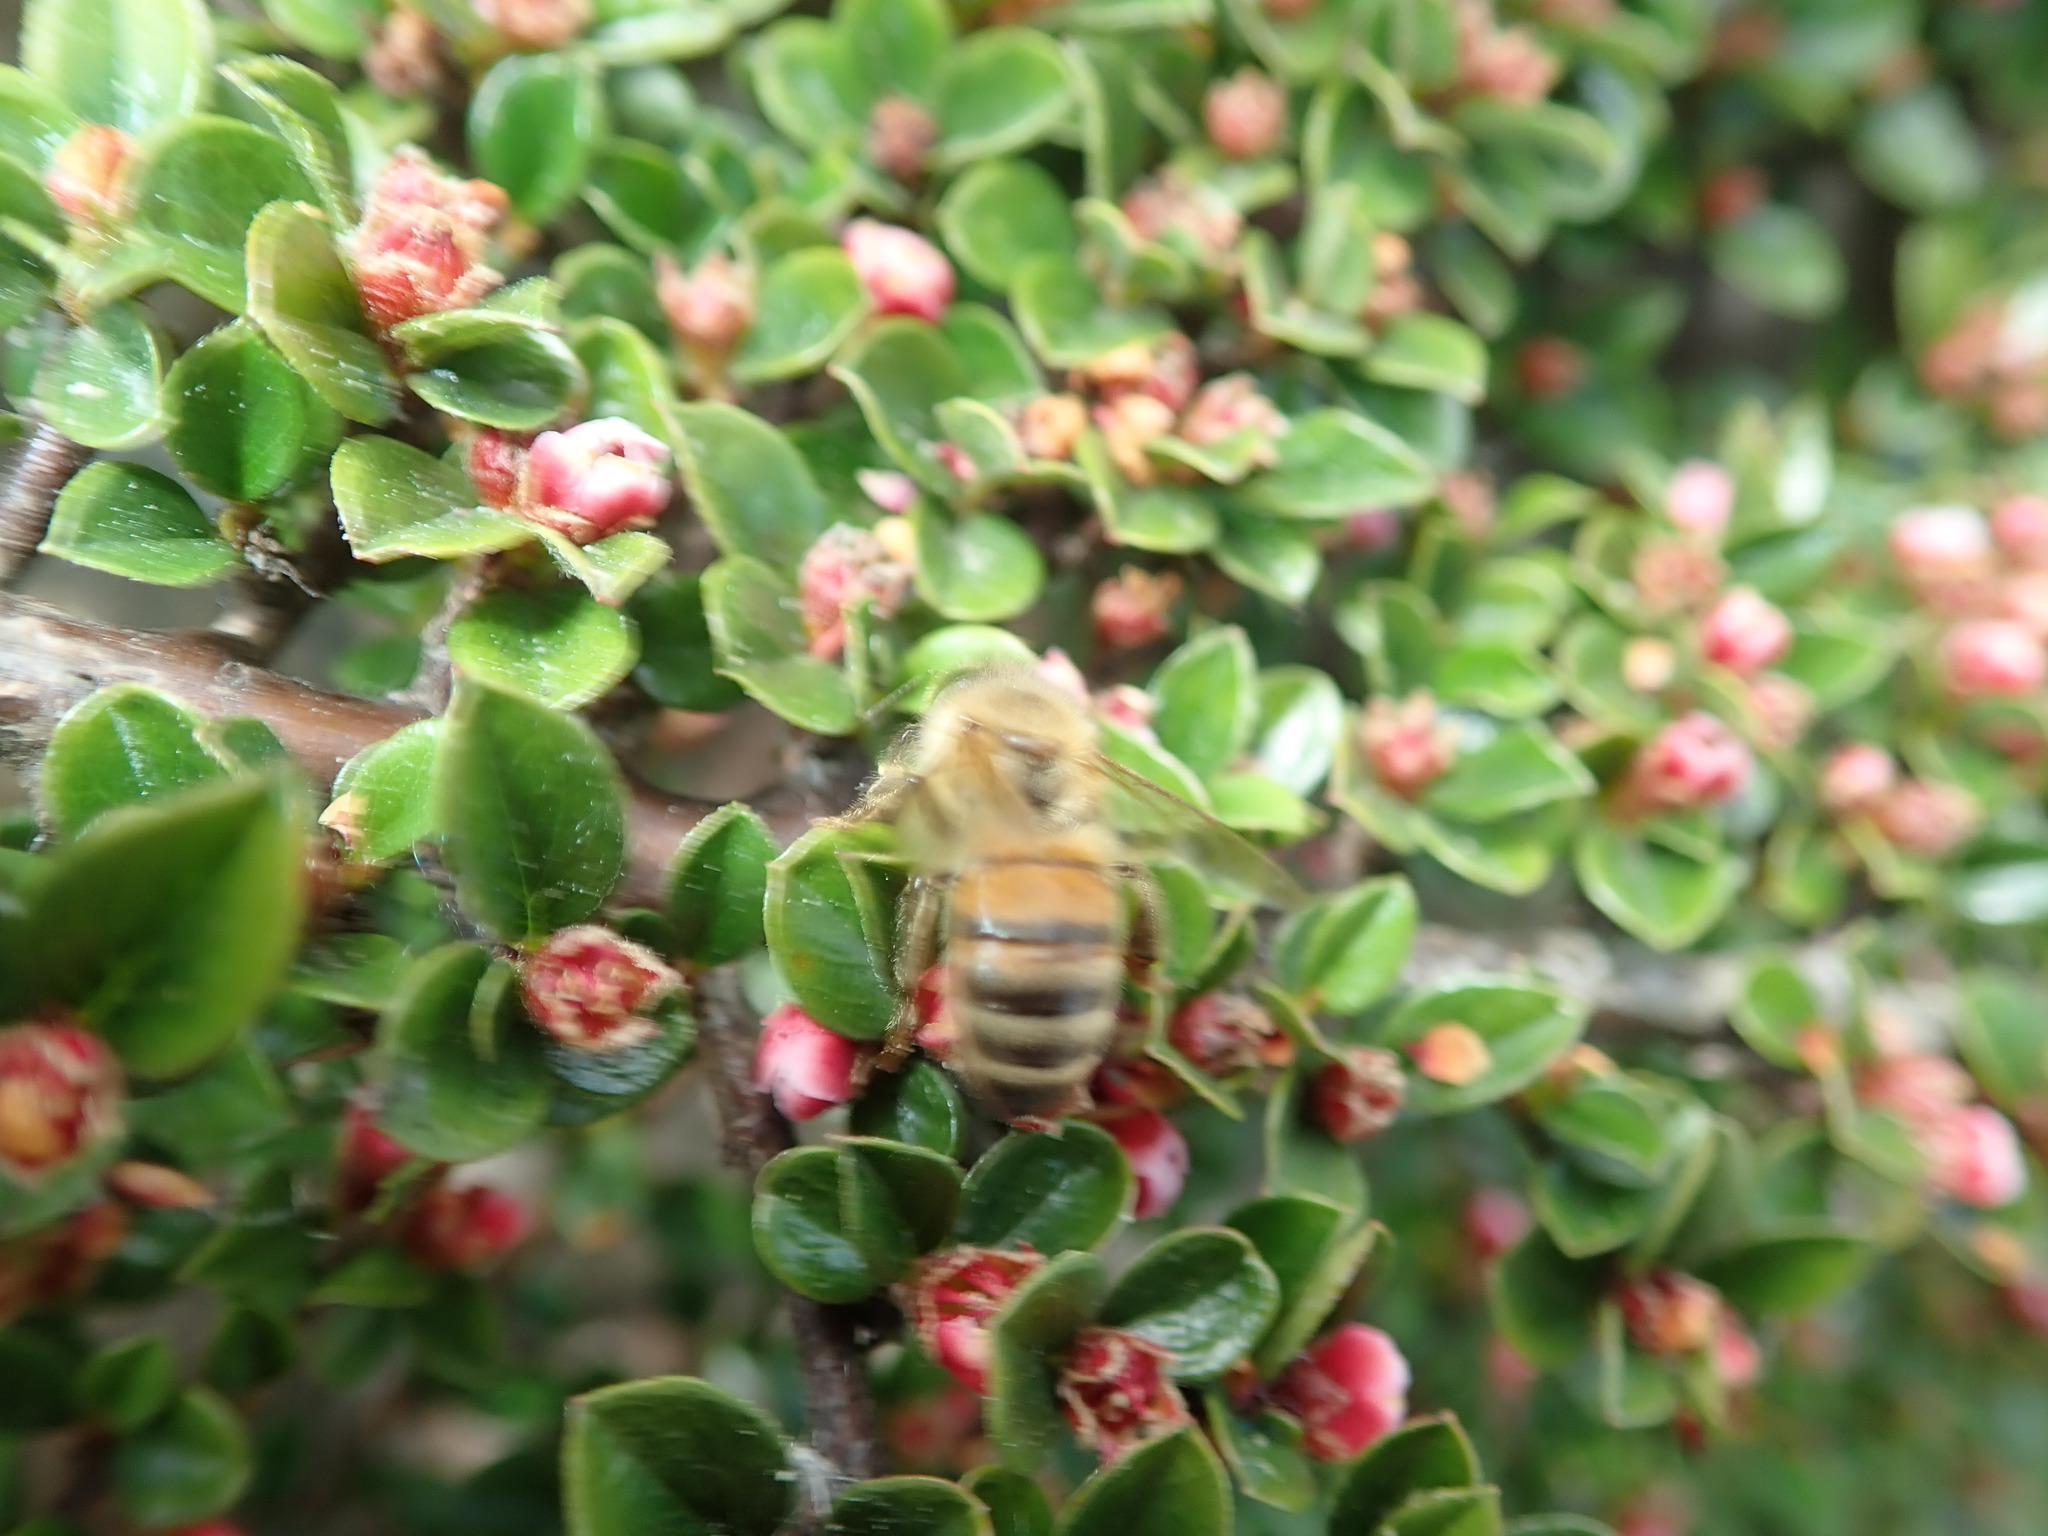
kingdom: Animalia
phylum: Arthropoda
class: Insecta
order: Hymenoptera
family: Apidae
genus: Apis
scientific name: Apis mellifera
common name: Honey bee
